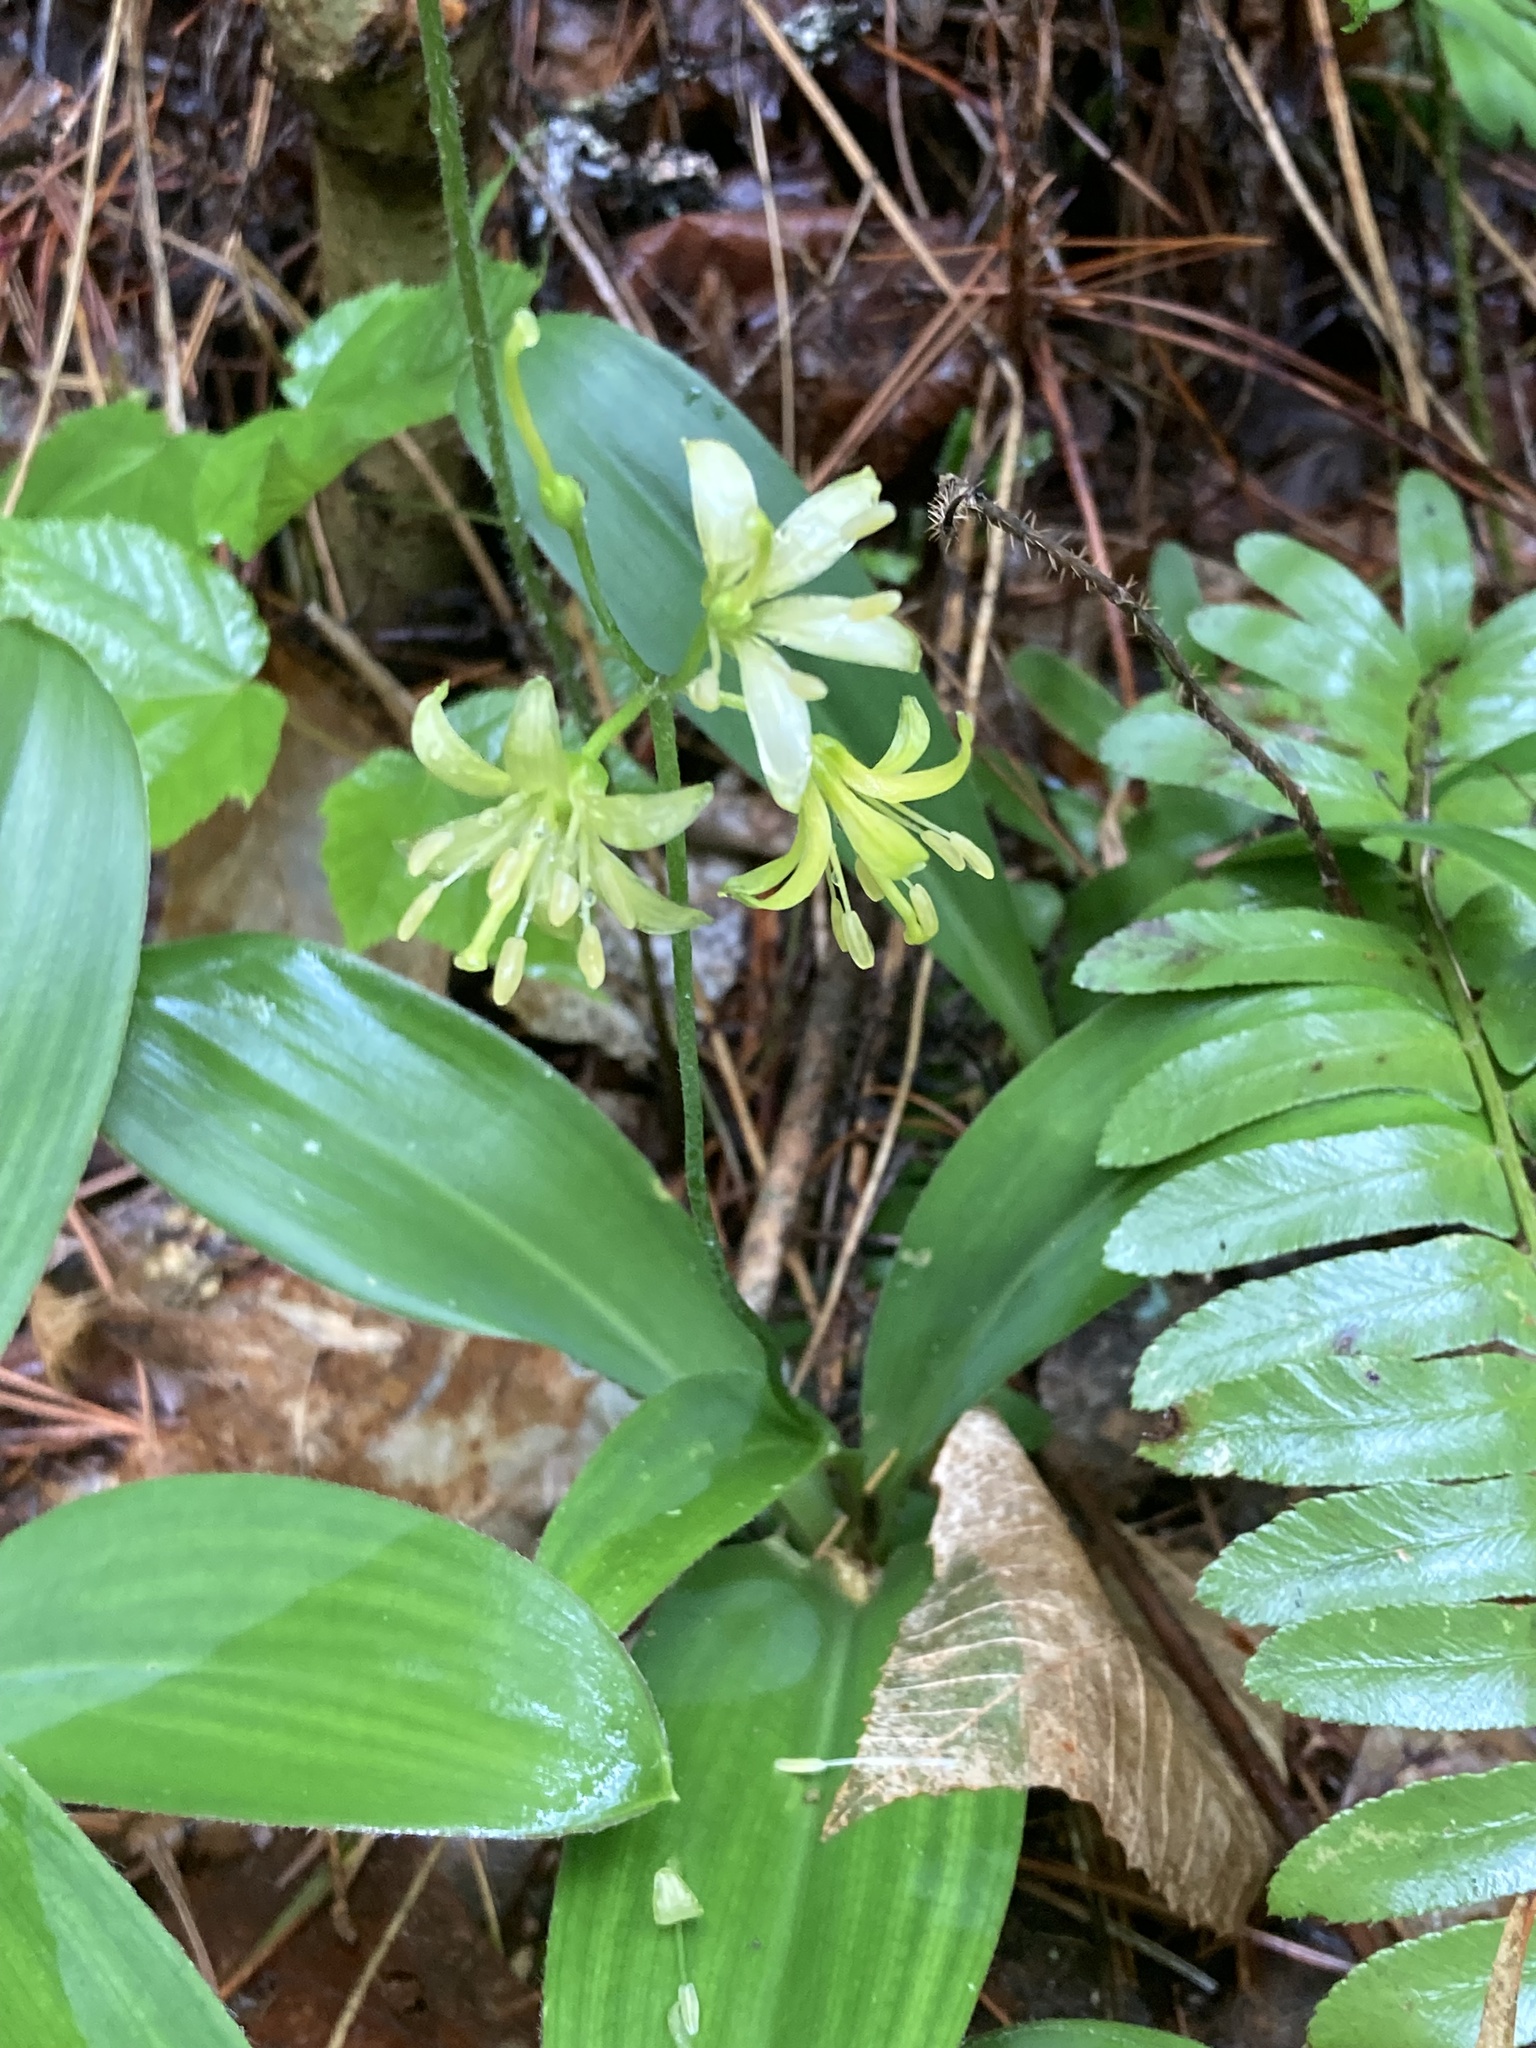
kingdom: Plantae
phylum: Tracheophyta
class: Liliopsida
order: Liliales
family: Liliaceae
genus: Clintonia
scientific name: Clintonia borealis
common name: Yellow clintonia
